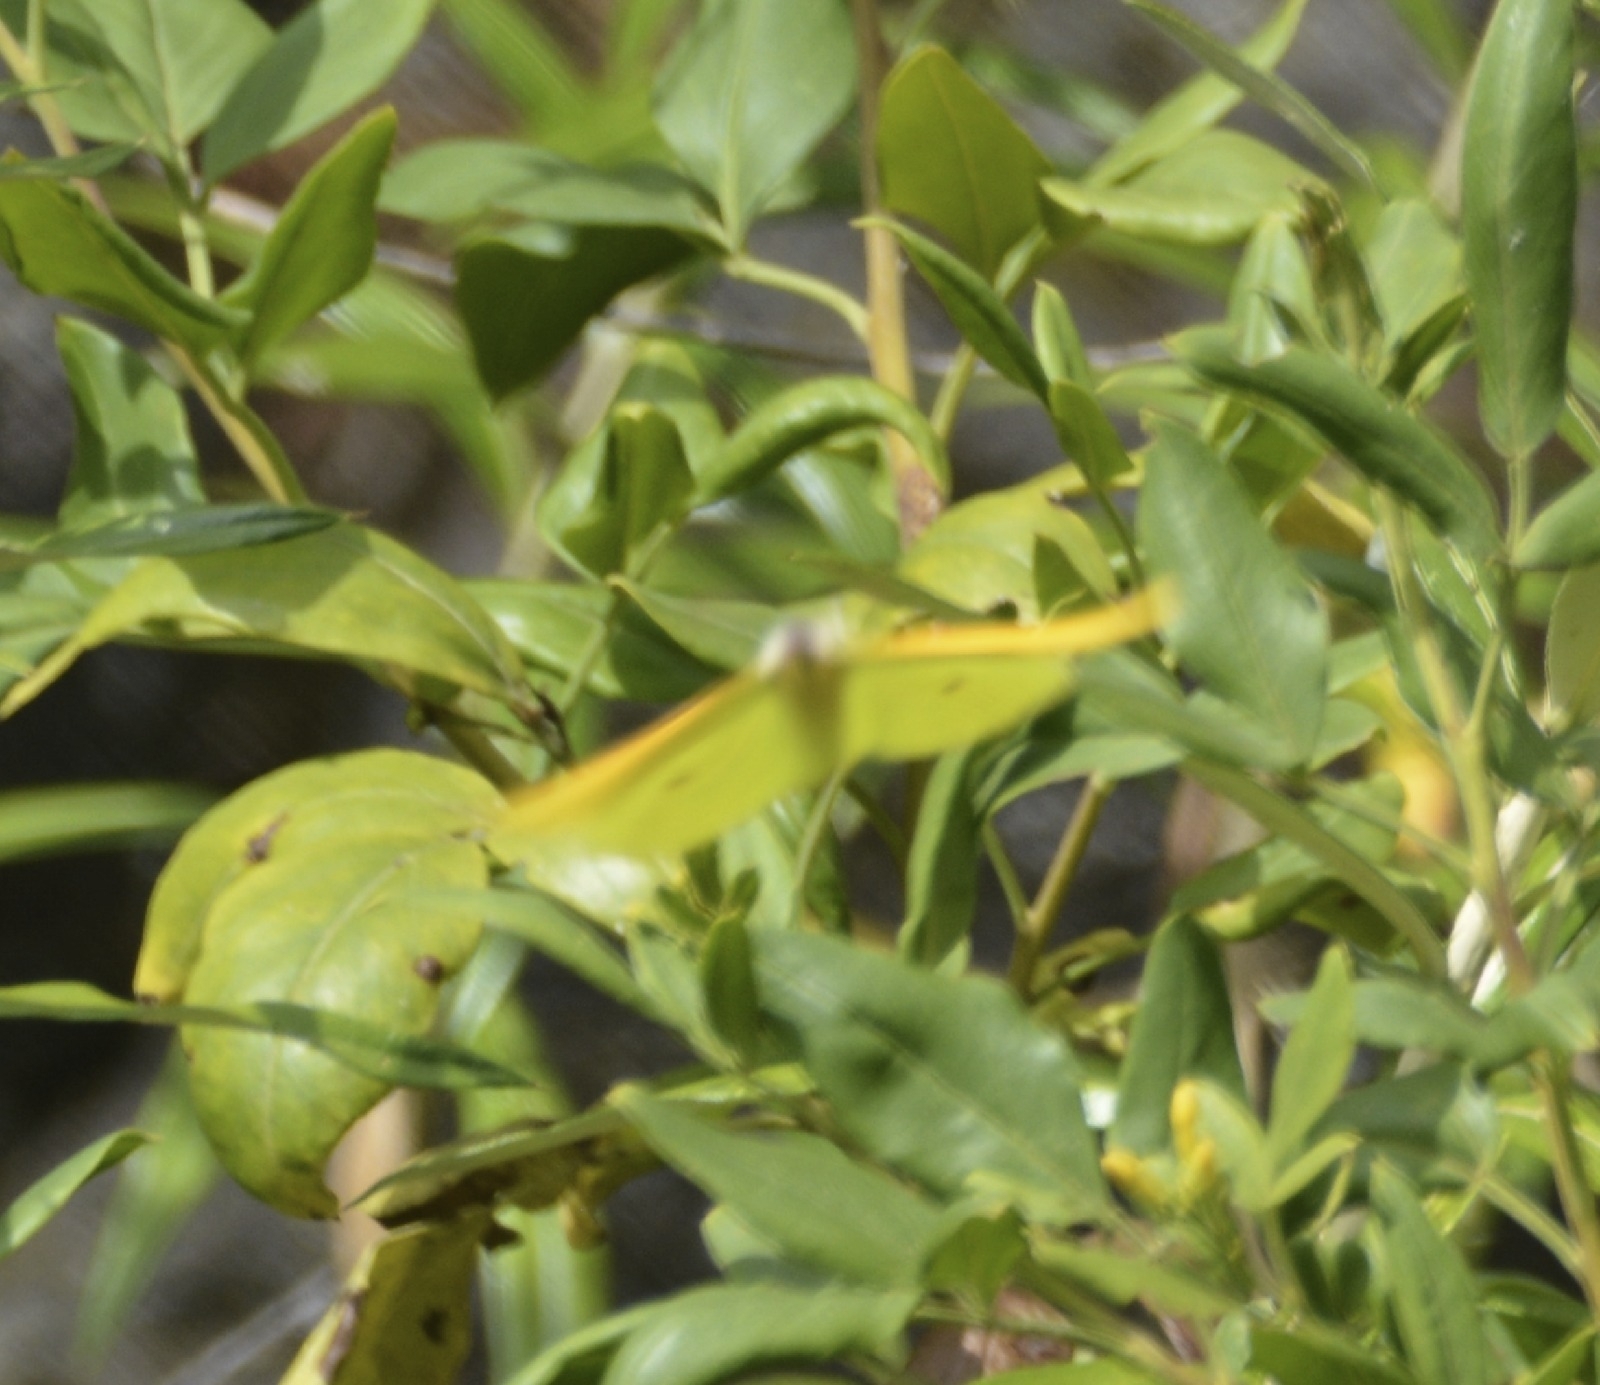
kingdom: Animalia
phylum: Arthropoda
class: Insecta
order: Lepidoptera
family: Pieridae
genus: Gonepteryx
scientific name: Gonepteryx cleobule
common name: Canary brimstone
